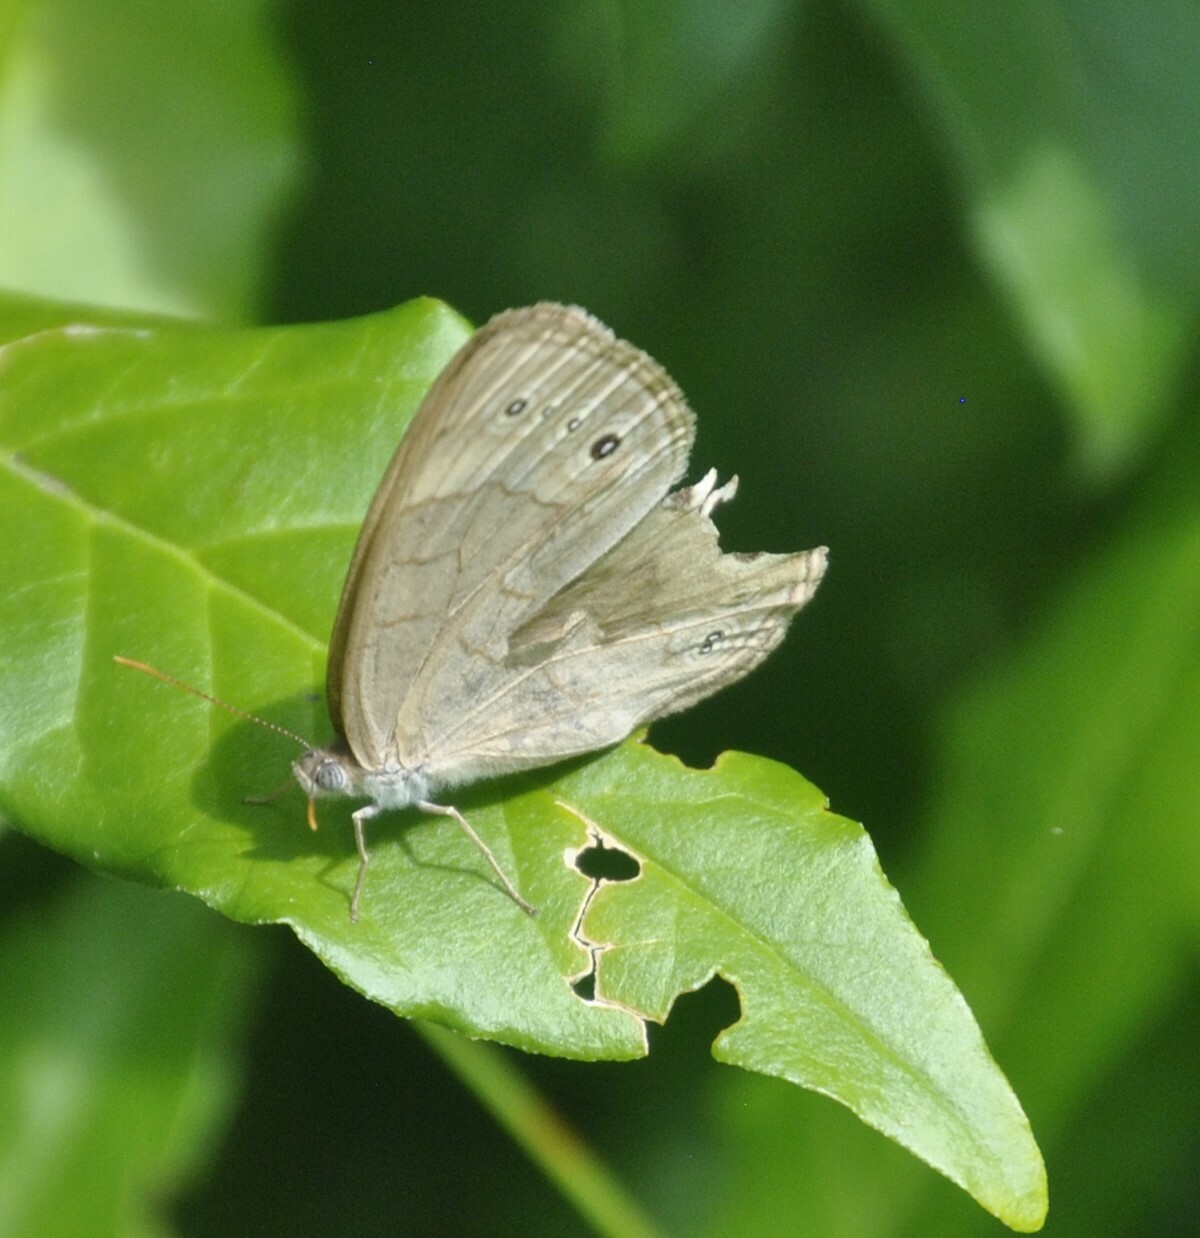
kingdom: Animalia
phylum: Arthropoda
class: Insecta
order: Lepidoptera
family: Nymphalidae
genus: Lethe
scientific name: Lethe eurydice
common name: Eyed brown
